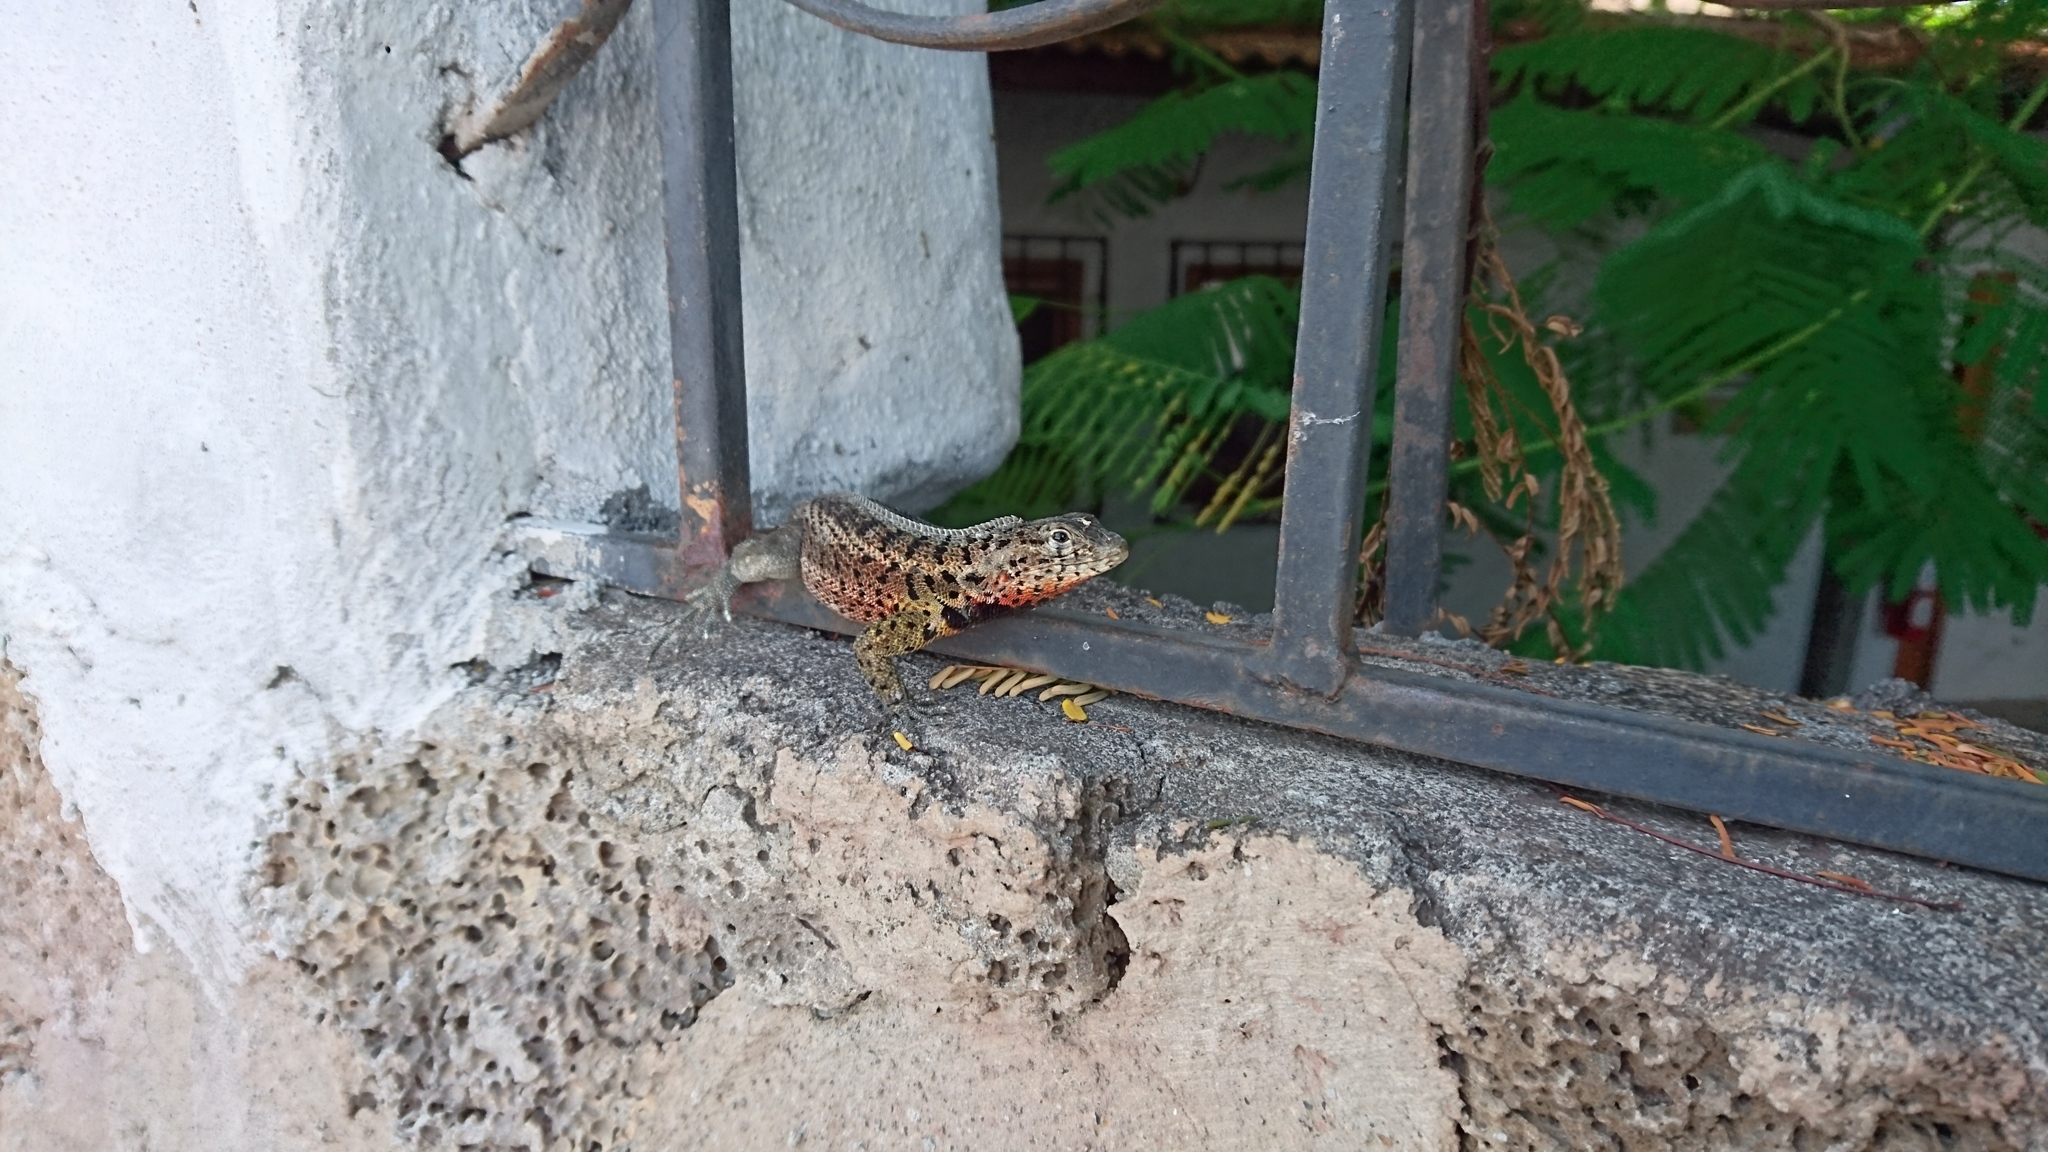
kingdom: Animalia
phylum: Chordata
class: Squamata
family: Tropiduridae
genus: Microlophus
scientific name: Microlophus indefatigabilis
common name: Galapagos lava lizard
